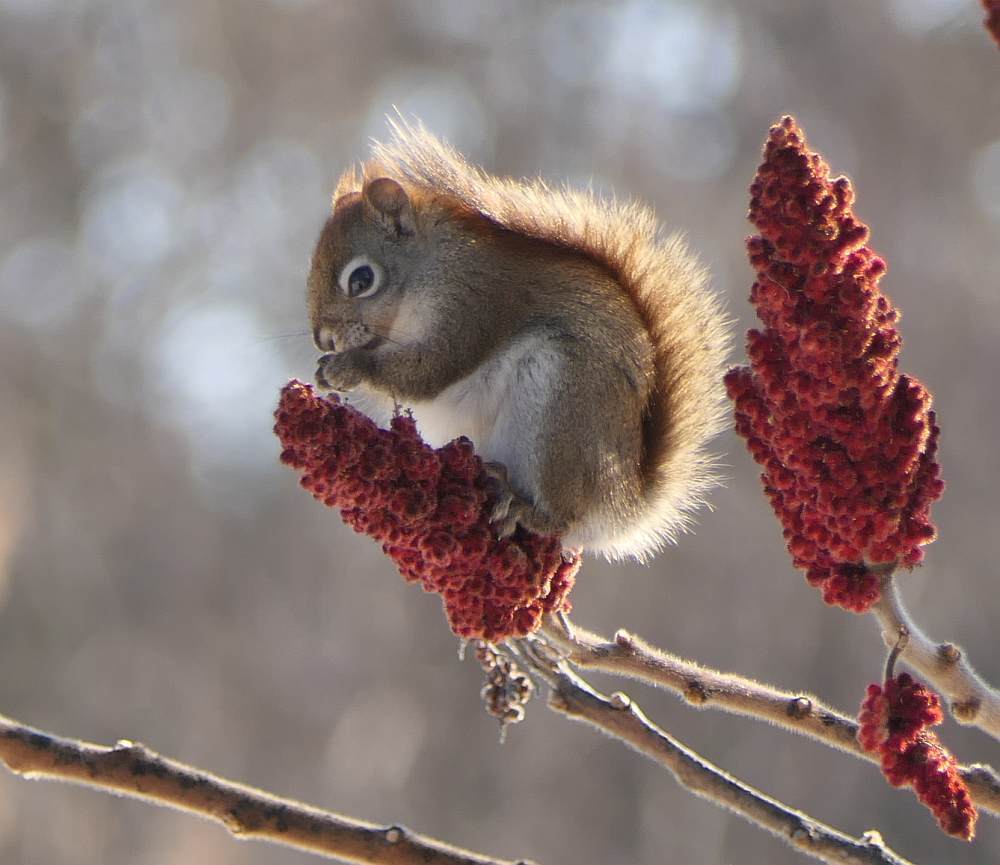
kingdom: Animalia
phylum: Chordata
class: Mammalia
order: Rodentia
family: Sciuridae
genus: Tamiasciurus
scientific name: Tamiasciurus hudsonicus
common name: Red squirrel
